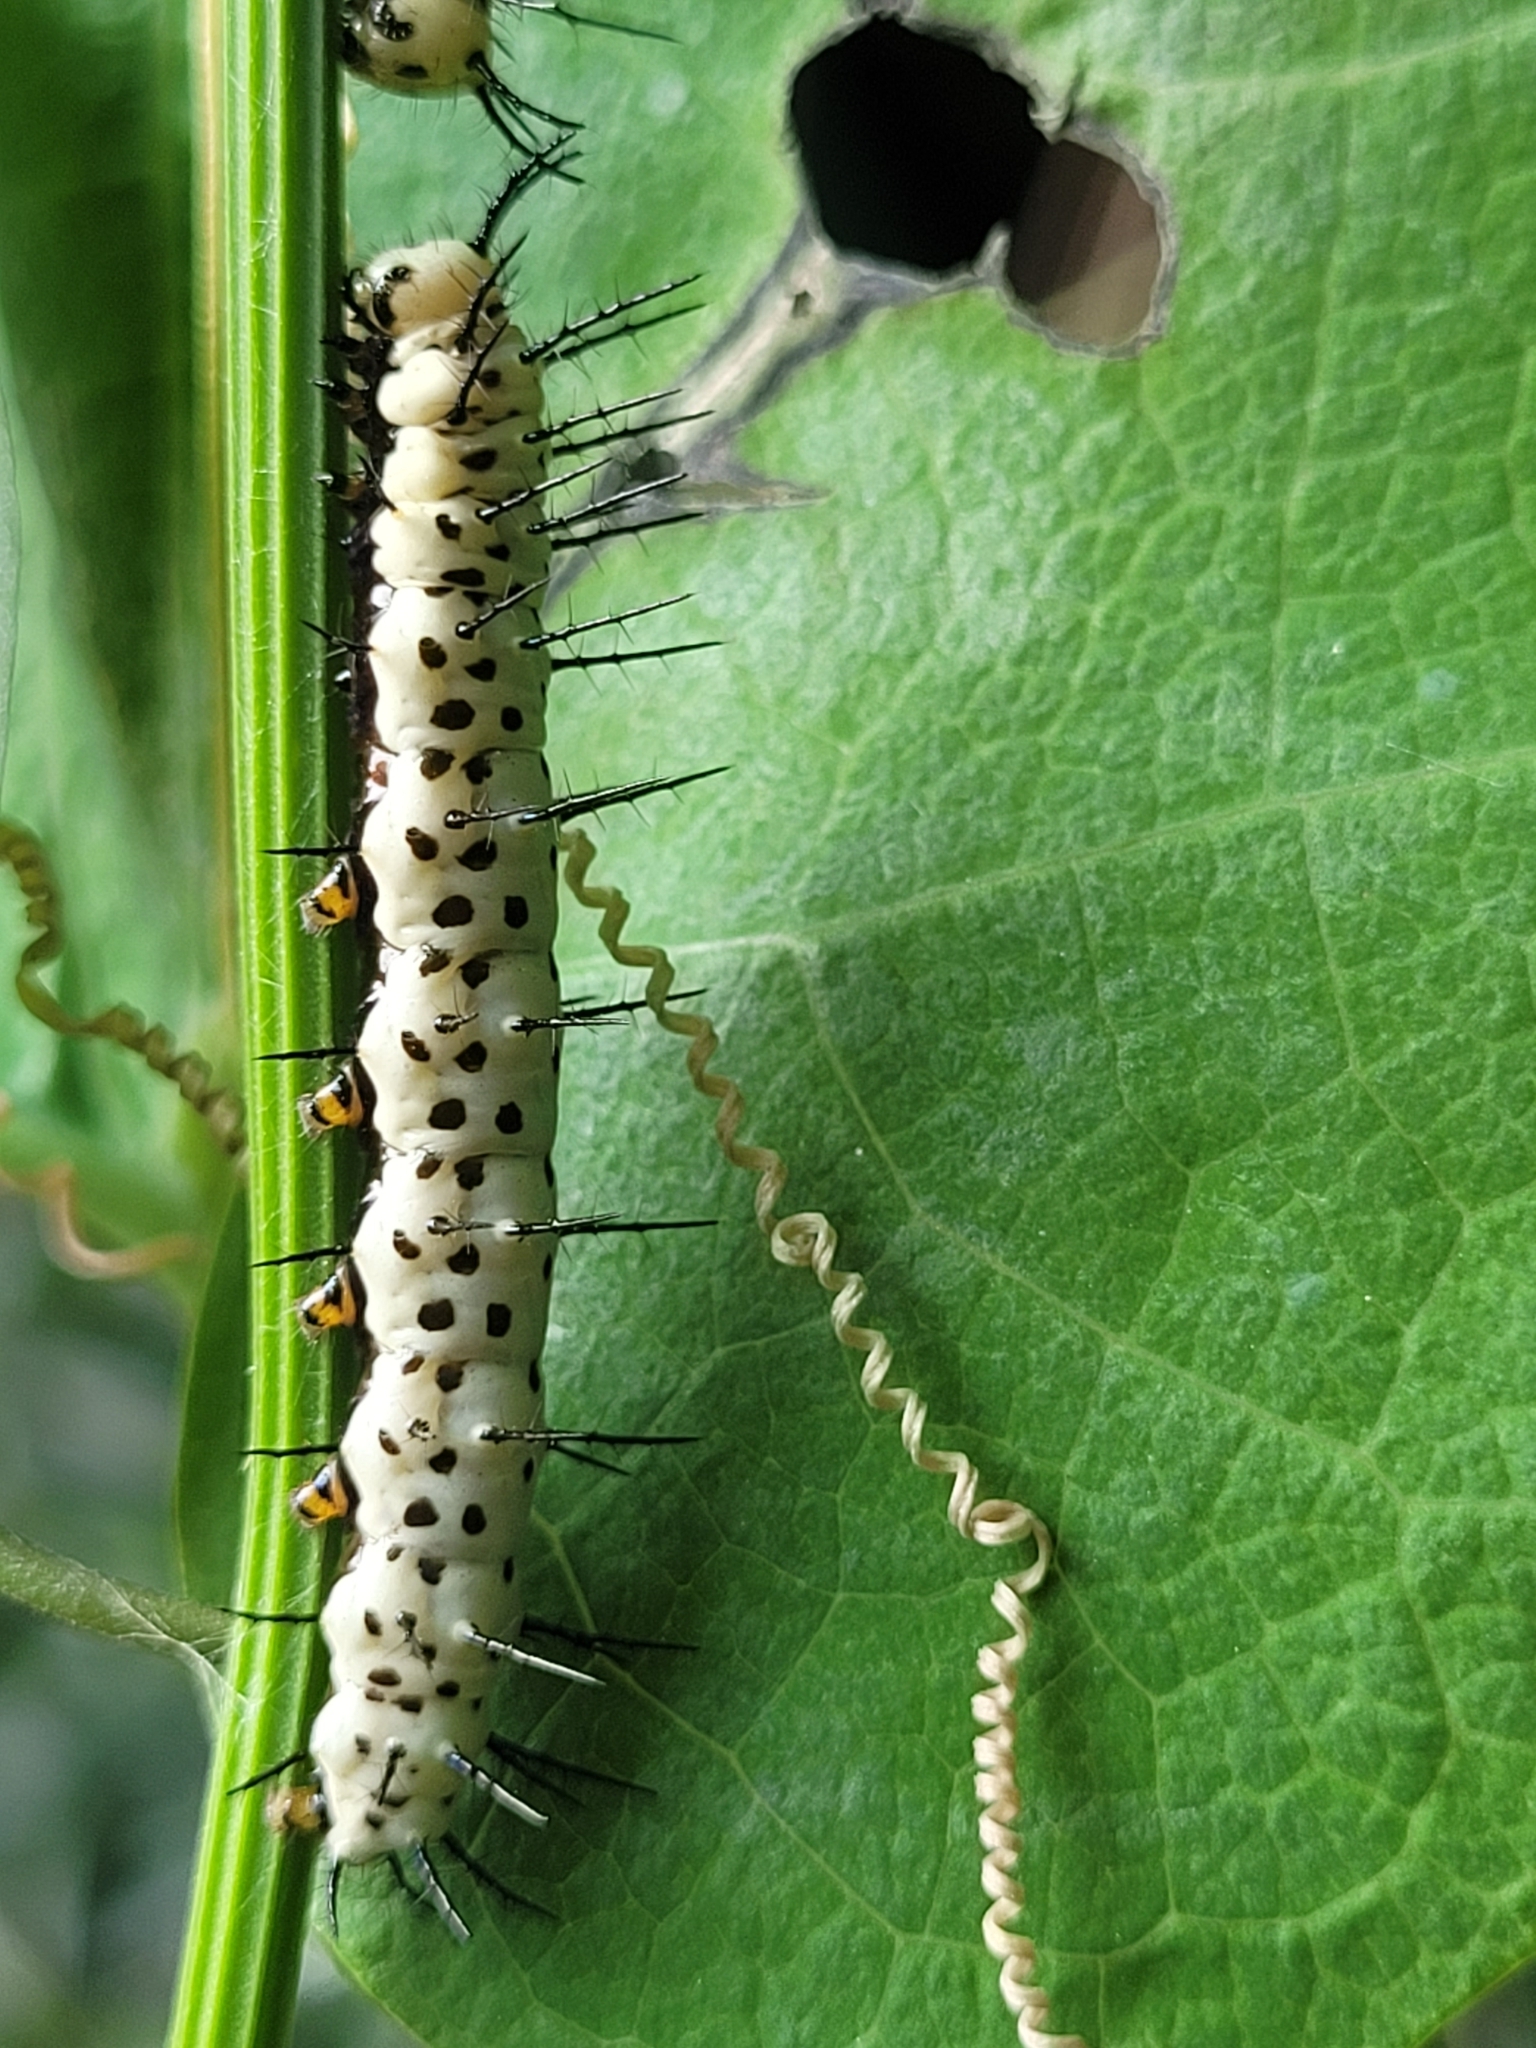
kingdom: Animalia
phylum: Arthropoda
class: Insecta
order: Lepidoptera
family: Nymphalidae
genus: Heliconius
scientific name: Heliconius charithonia
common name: Zebra long wing
